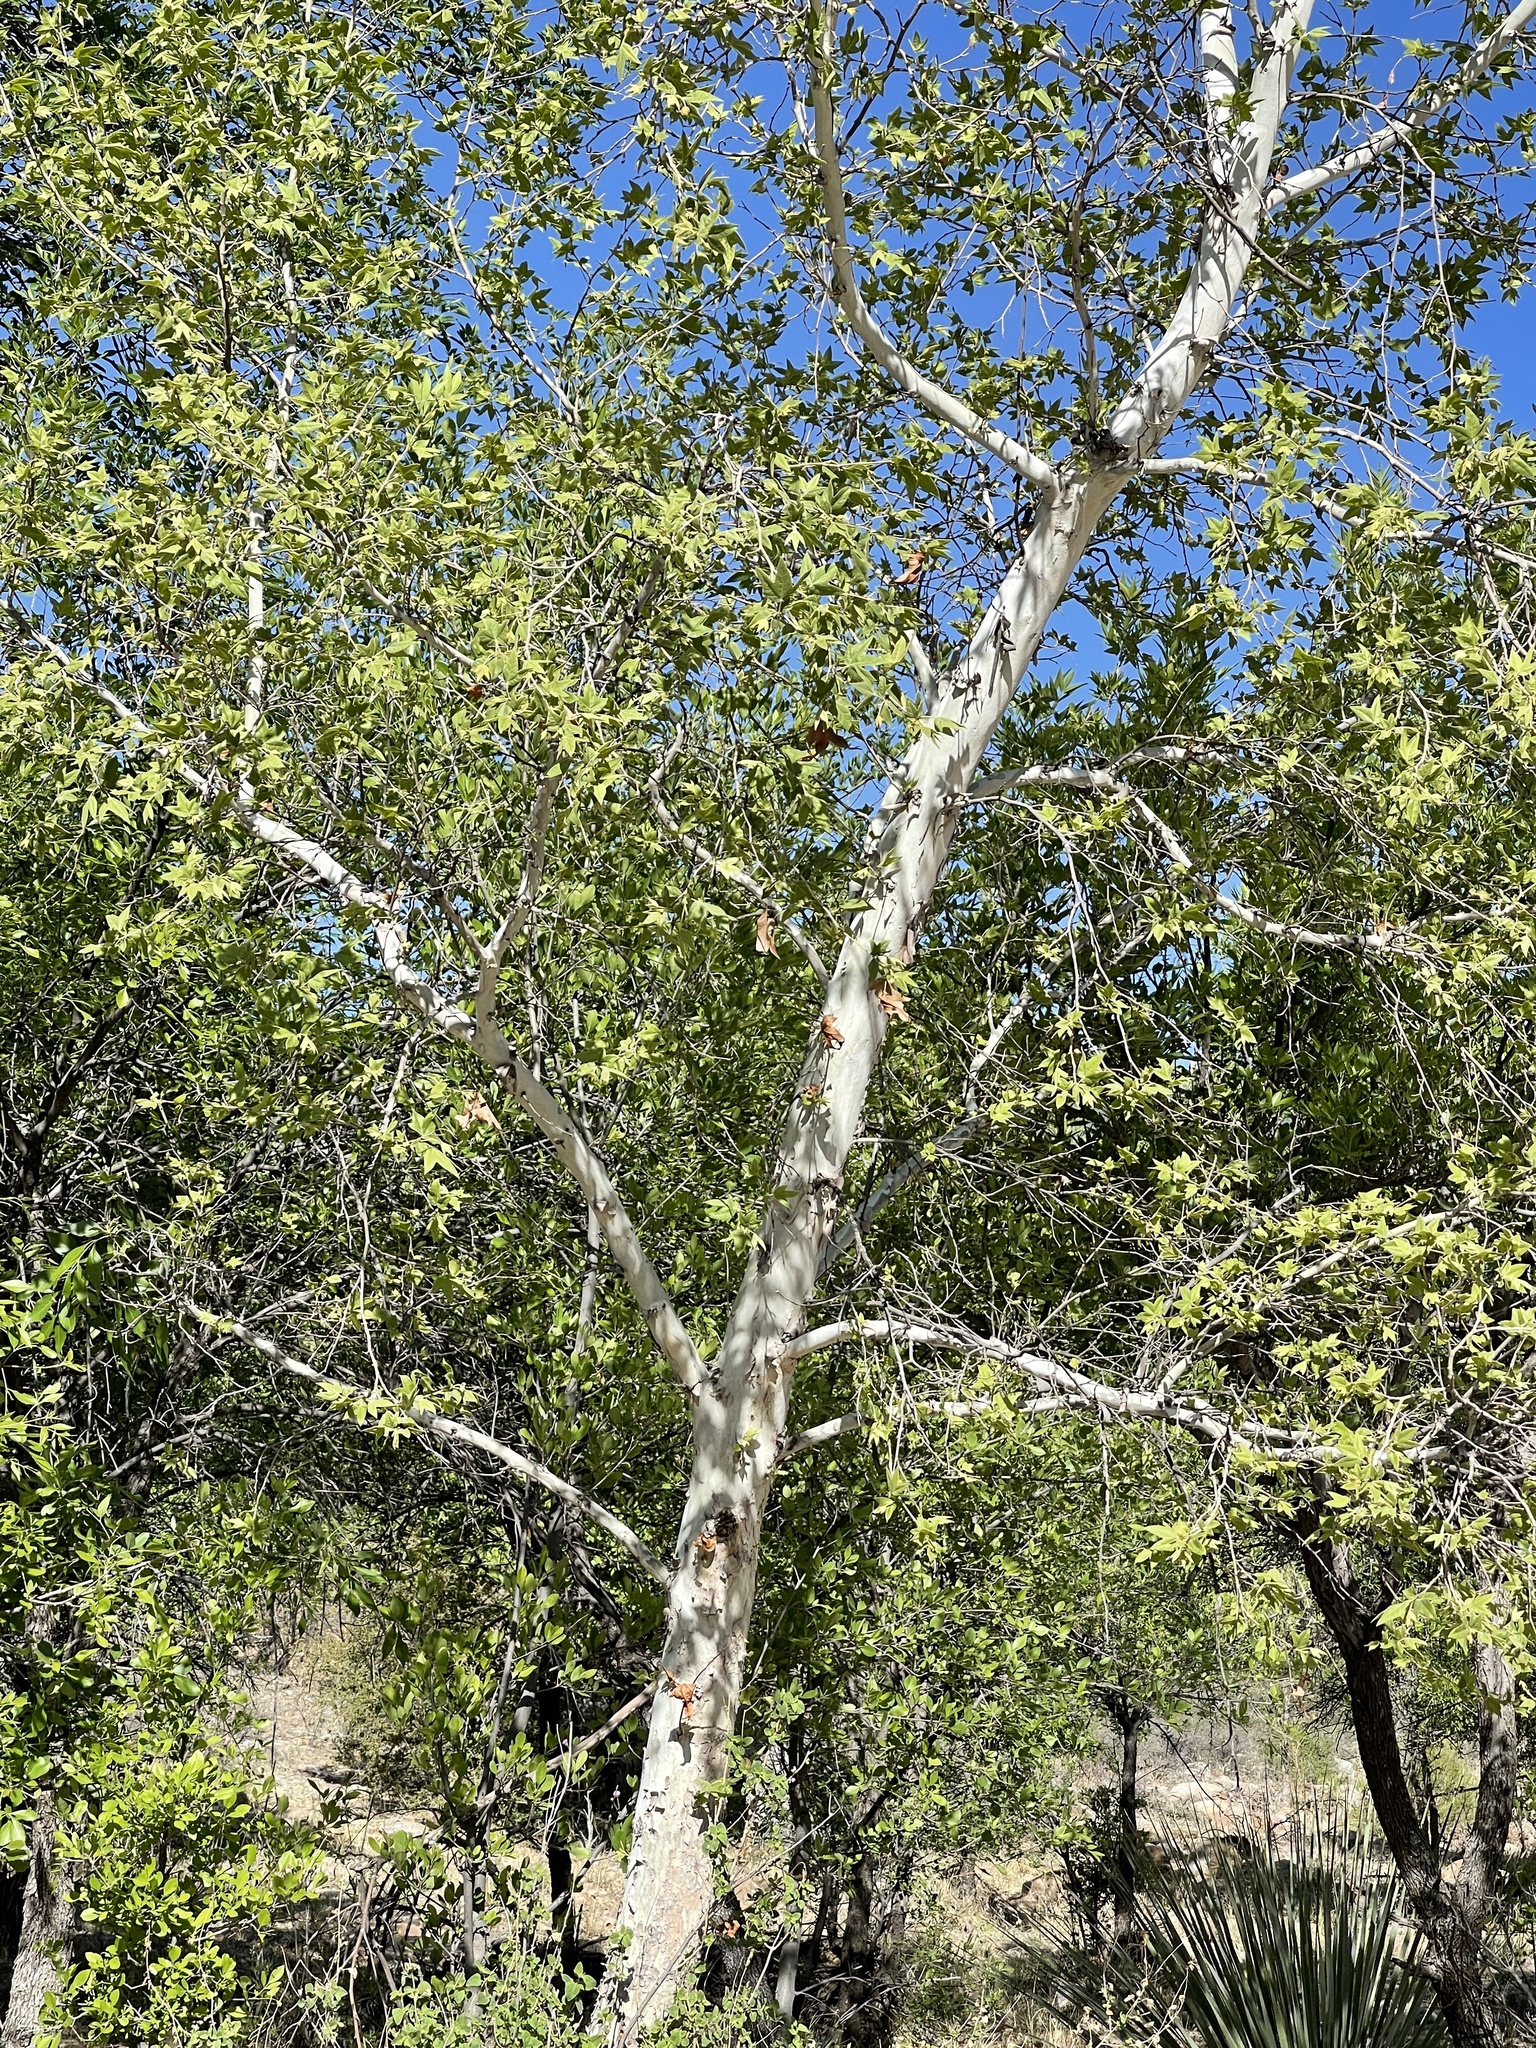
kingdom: Plantae
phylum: Tracheophyta
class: Magnoliopsida
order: Proteales
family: Platanaceae
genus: Platanus
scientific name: Platanus wrightii
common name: Arizona sycamore
